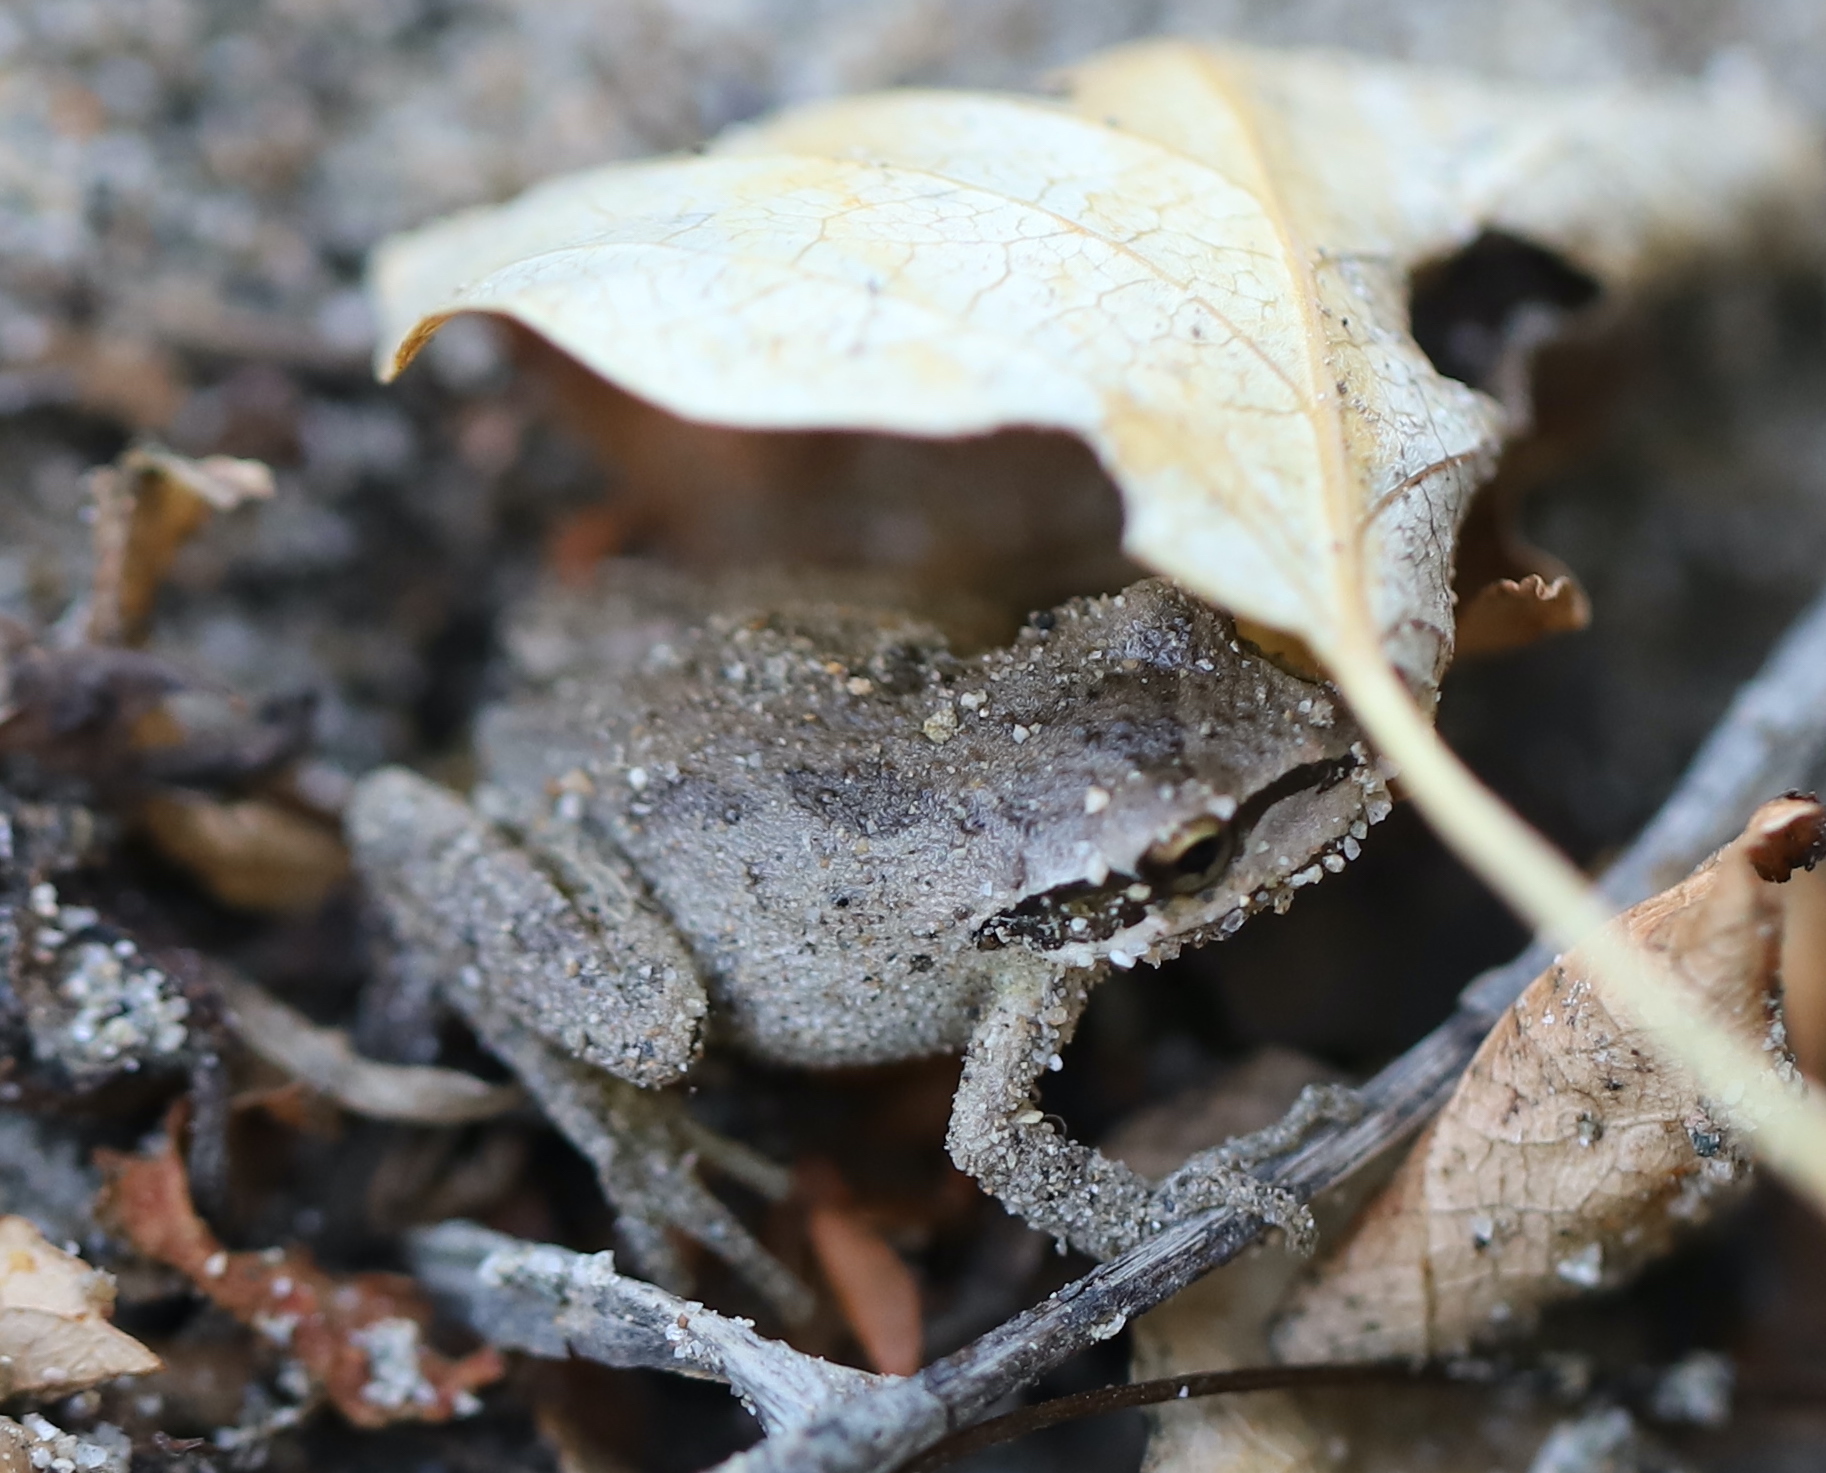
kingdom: Animalia
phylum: Chordata
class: Amphibia
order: Anura
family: Hylidae
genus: Pseudacris
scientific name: Pseudacris regilla
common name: Pacific chorus frog
